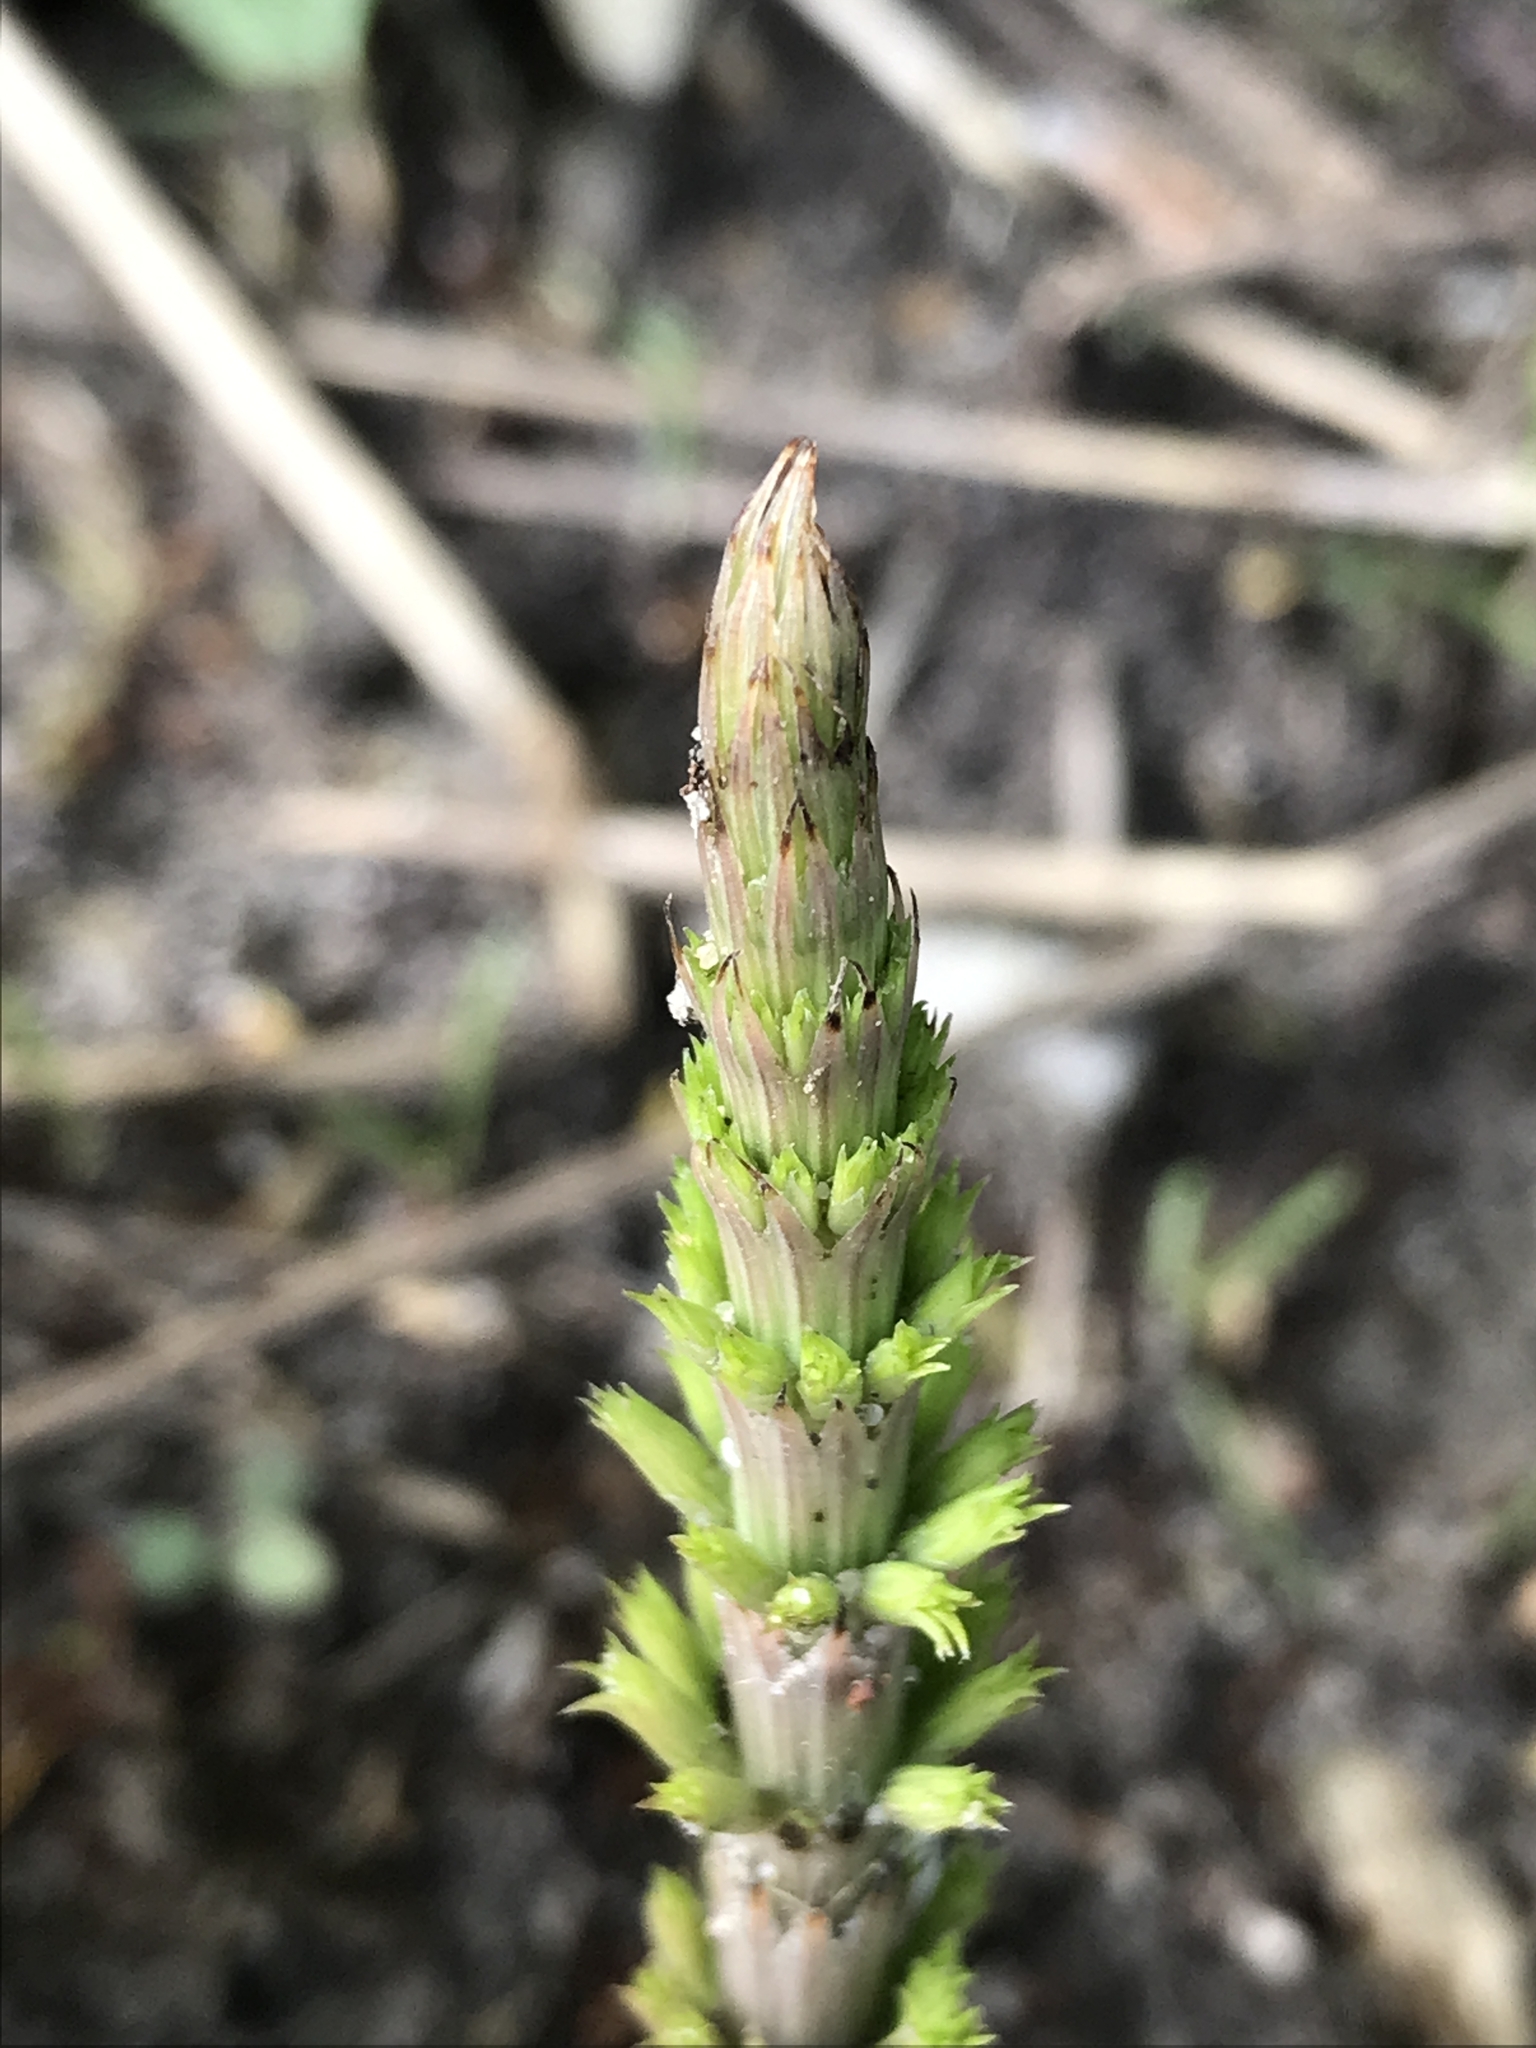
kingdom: Plantae
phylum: Tracheophyta
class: Polypodiopsida
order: Equisetales
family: Equisetaceae
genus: Equisetum
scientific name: Equisetum arvense
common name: Field horsetail
